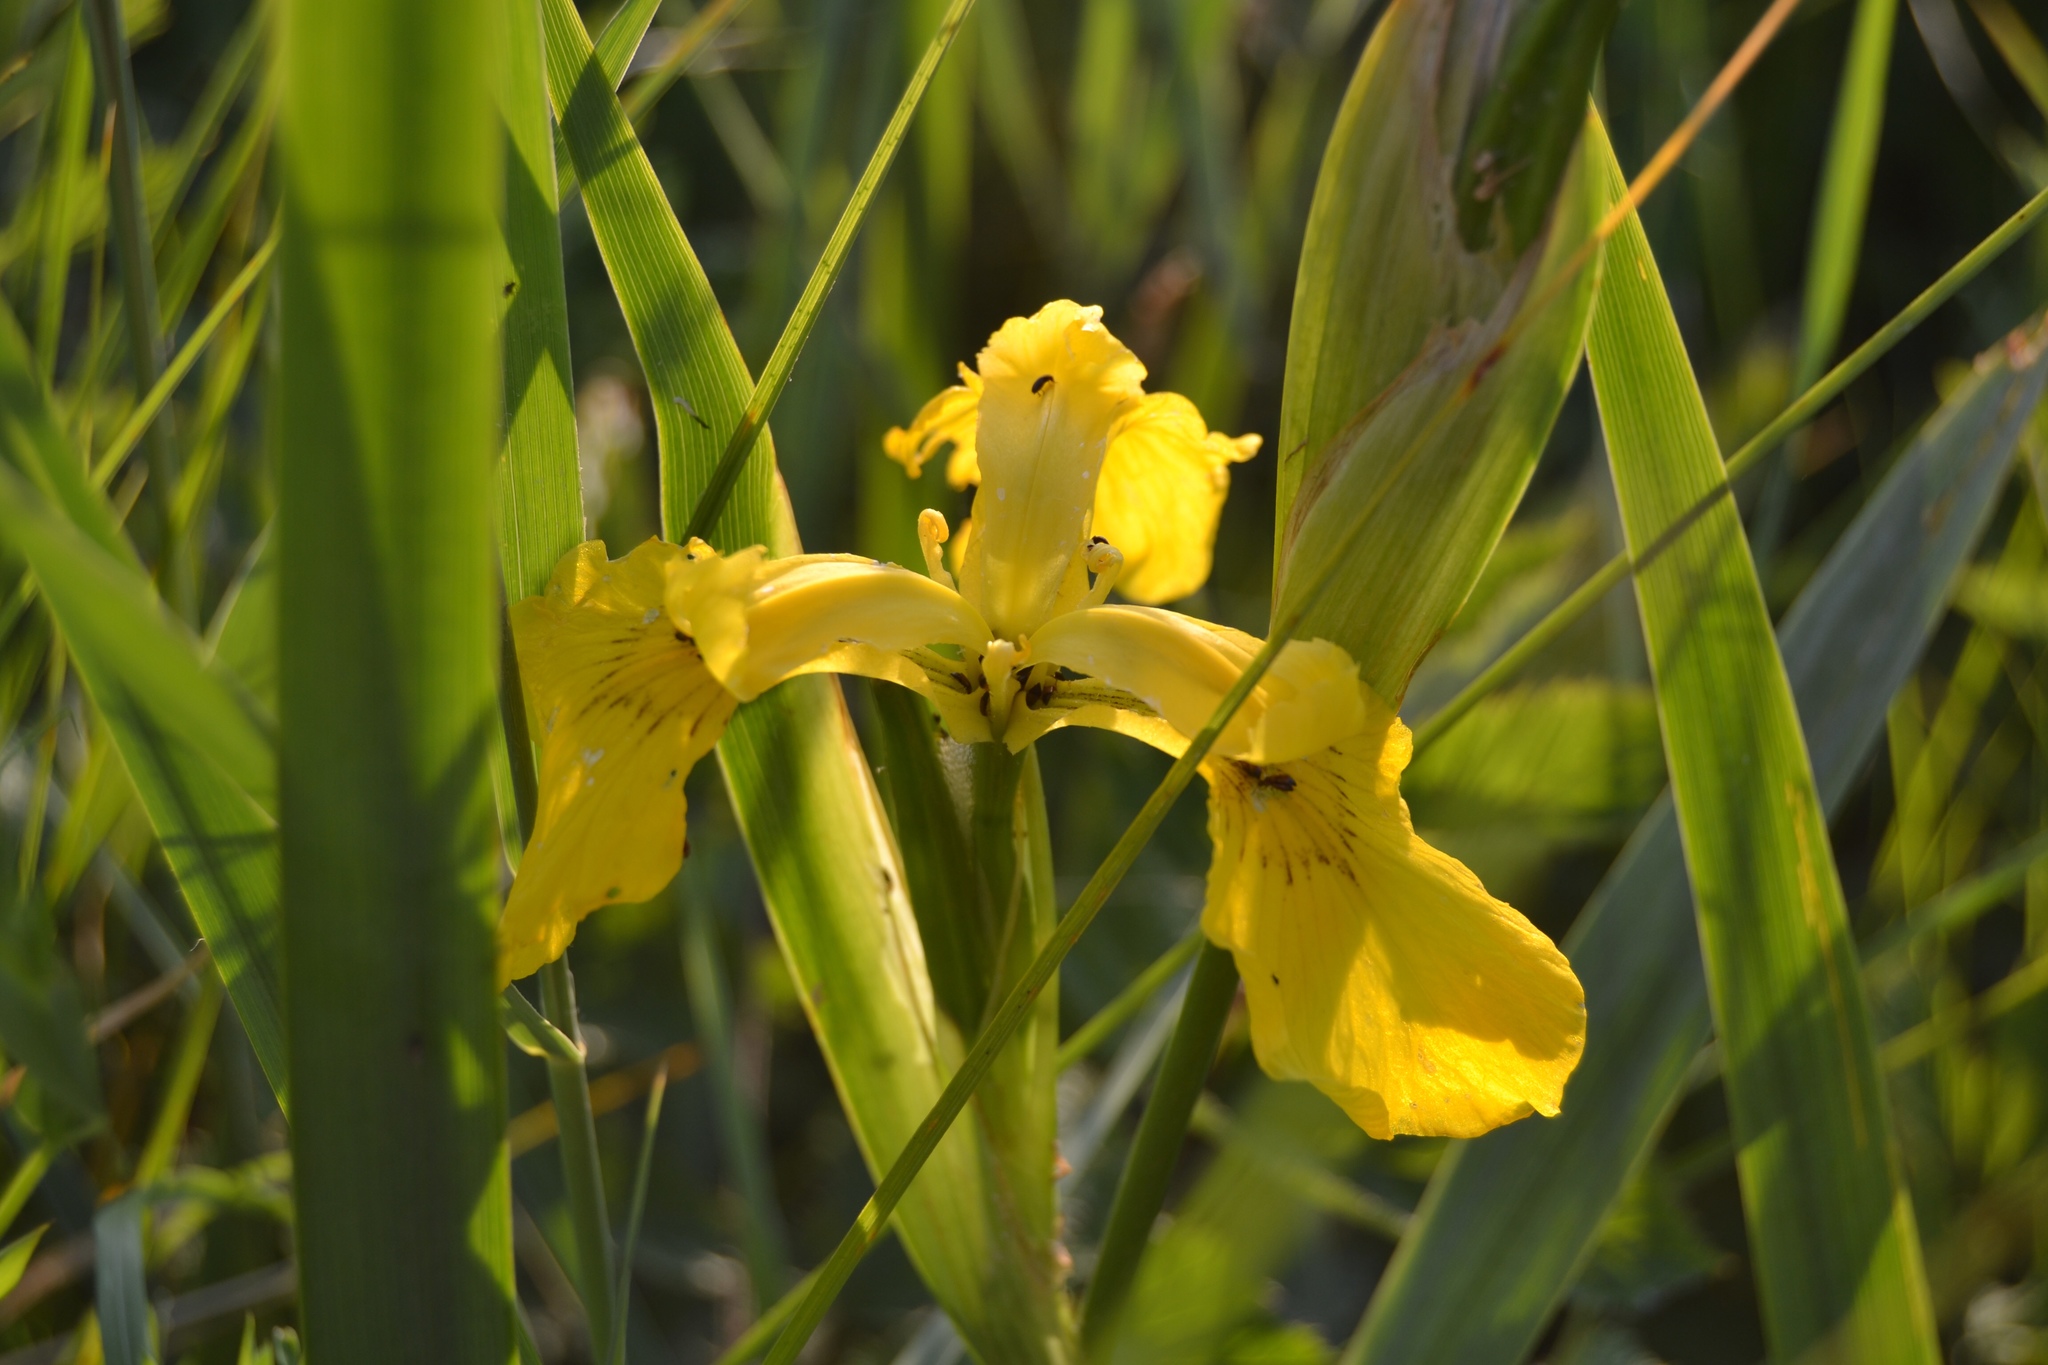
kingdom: Plantae
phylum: Tracheophyta
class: Liliopsida
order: Asparagales
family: Iridaceae
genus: Iris
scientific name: Iris pseudacorus
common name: Yellow flag
